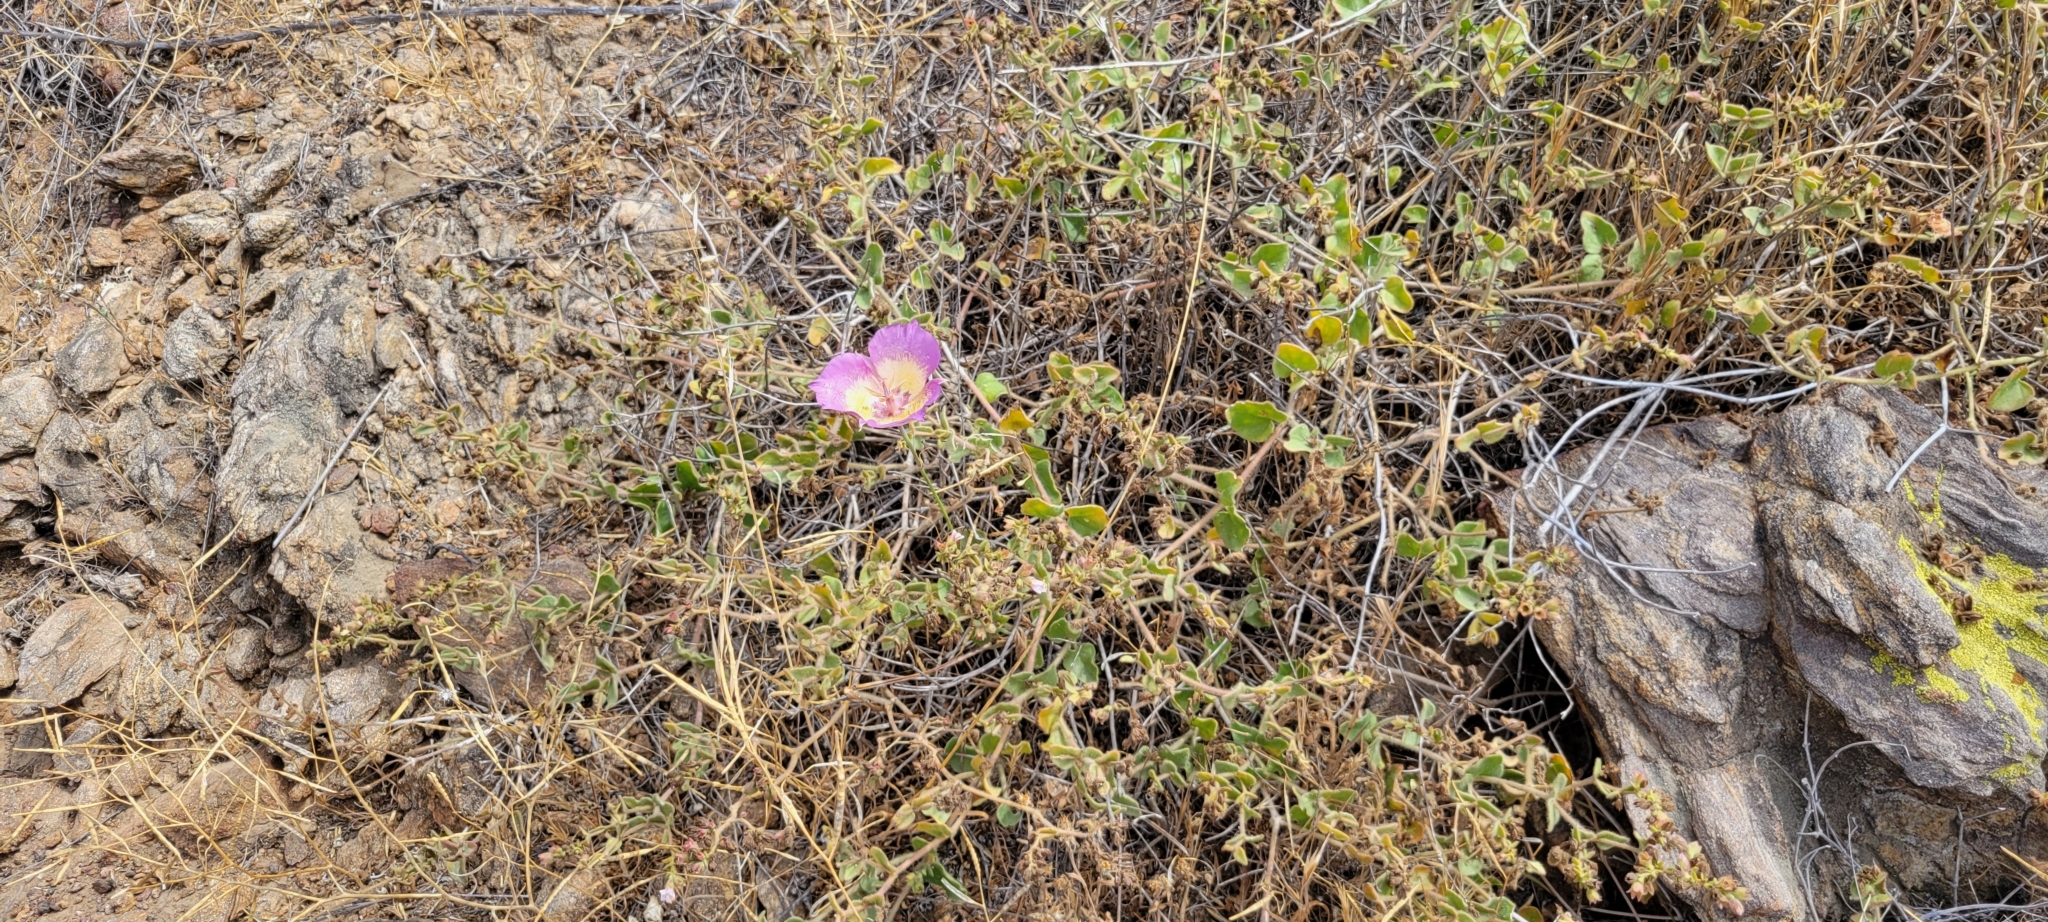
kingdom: Plantae
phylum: Tracheophyta
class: Liliopsida
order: Liliales
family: Liliaceae
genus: Calochortus
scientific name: Calochortus plummerae
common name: Plummer's mariposa-lily
